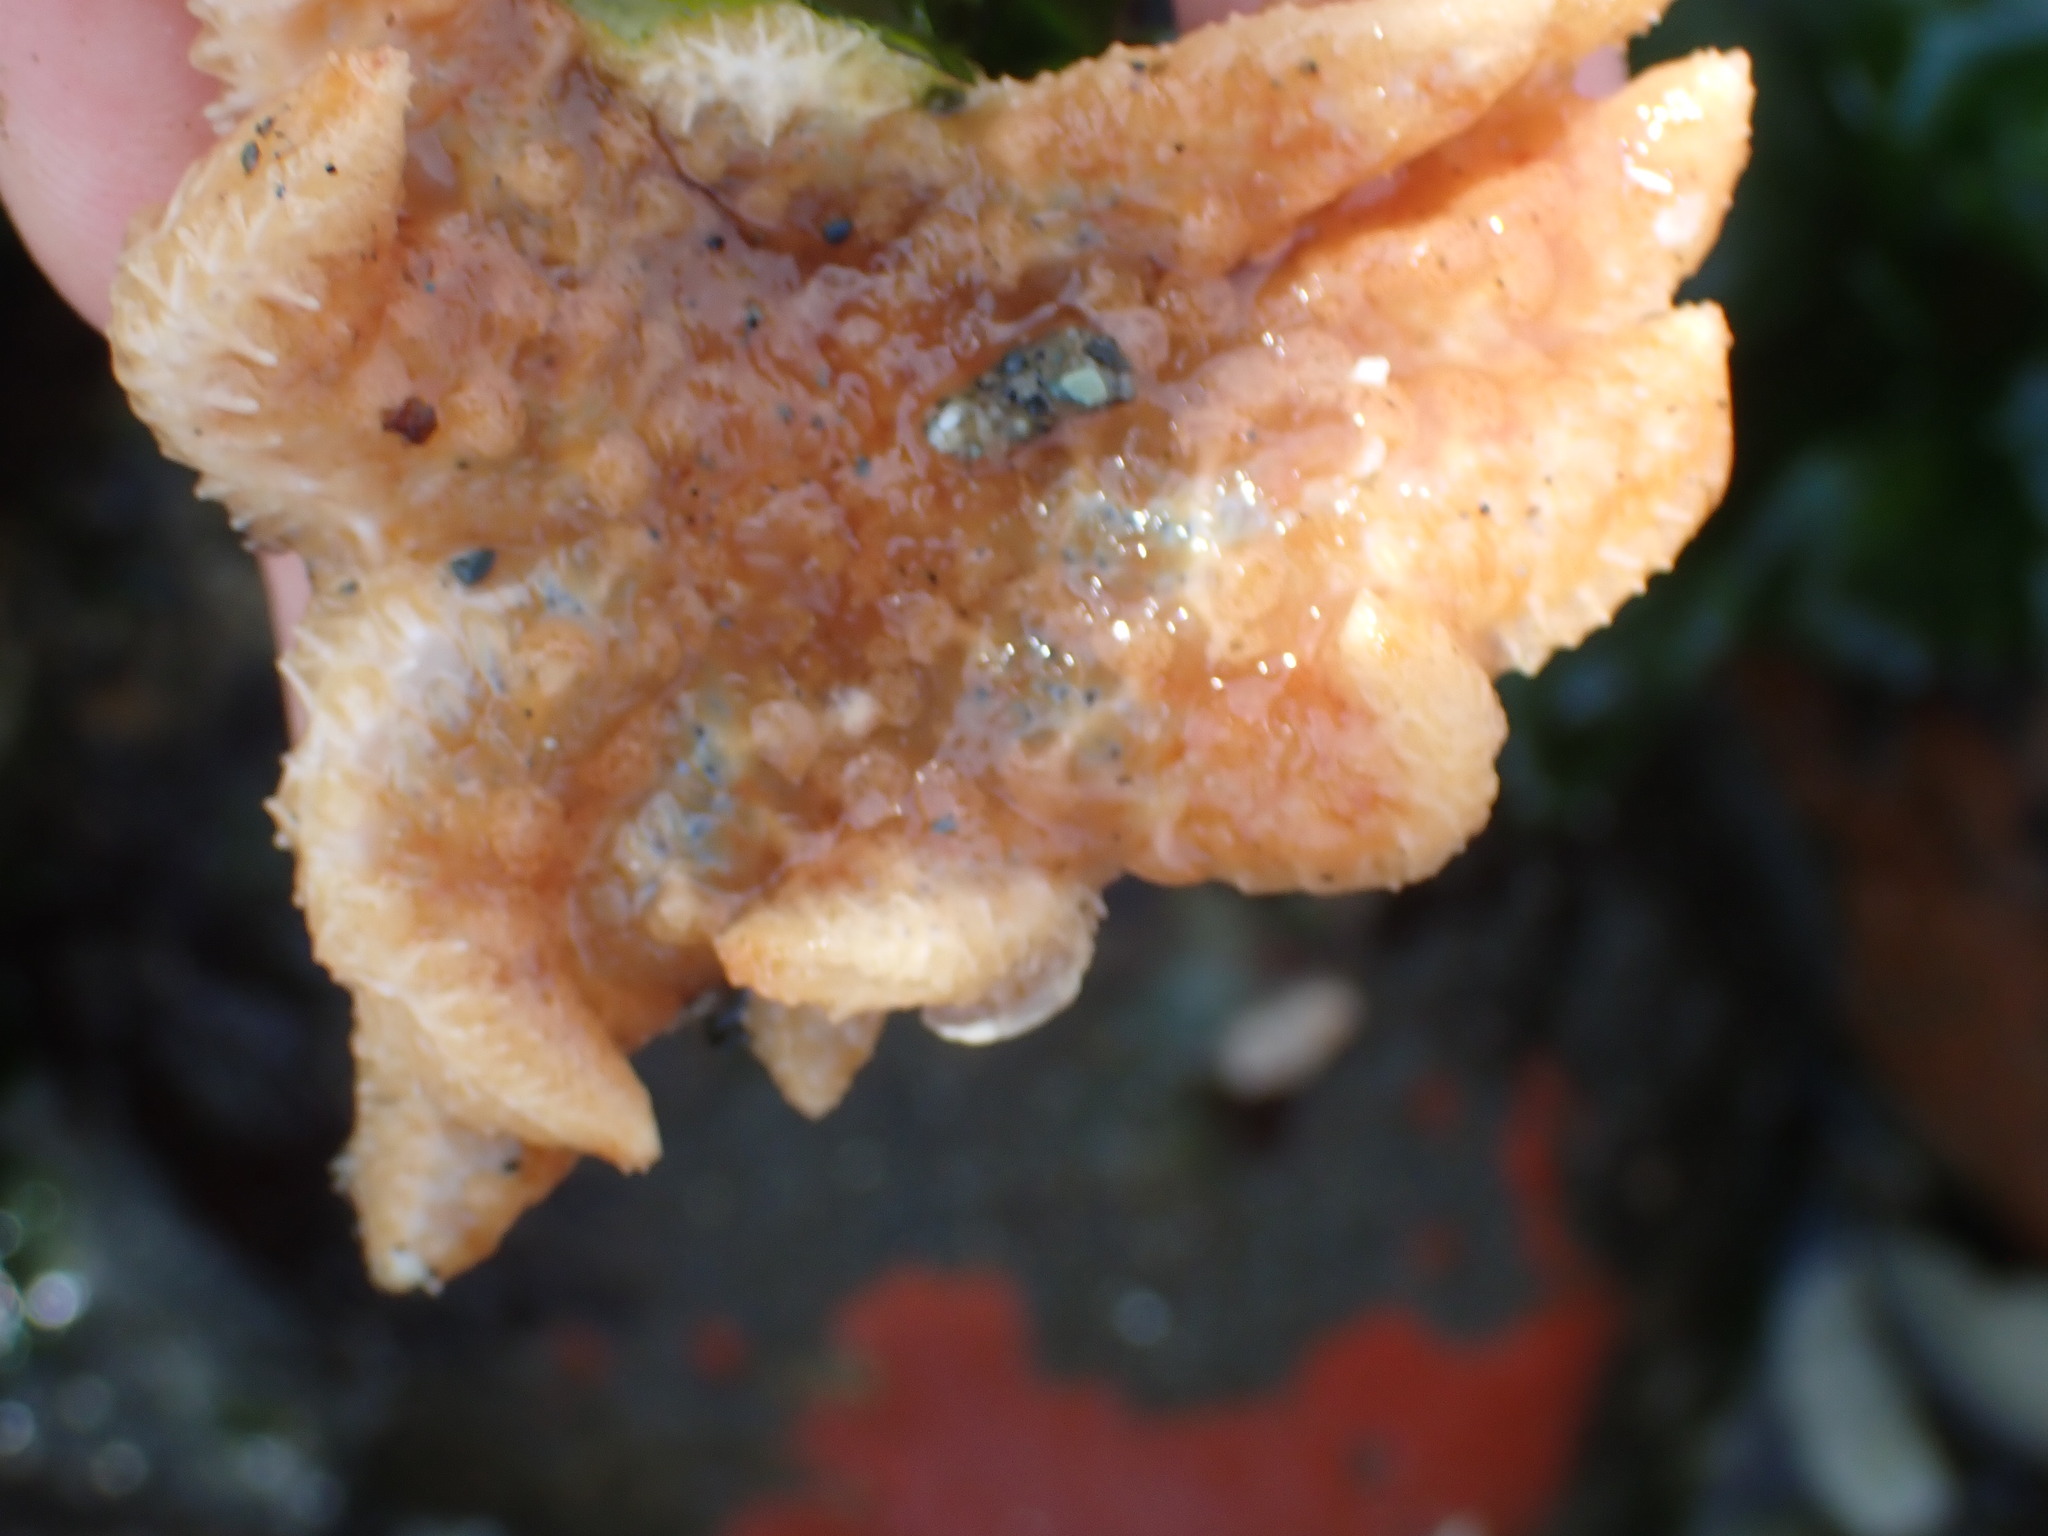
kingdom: Animalia
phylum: Echinodermata
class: Asteroidea
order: Forcipulatida
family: Asteriidae
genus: Pycnopodia
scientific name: Pycnopodia helianthoides
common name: Rag mop
